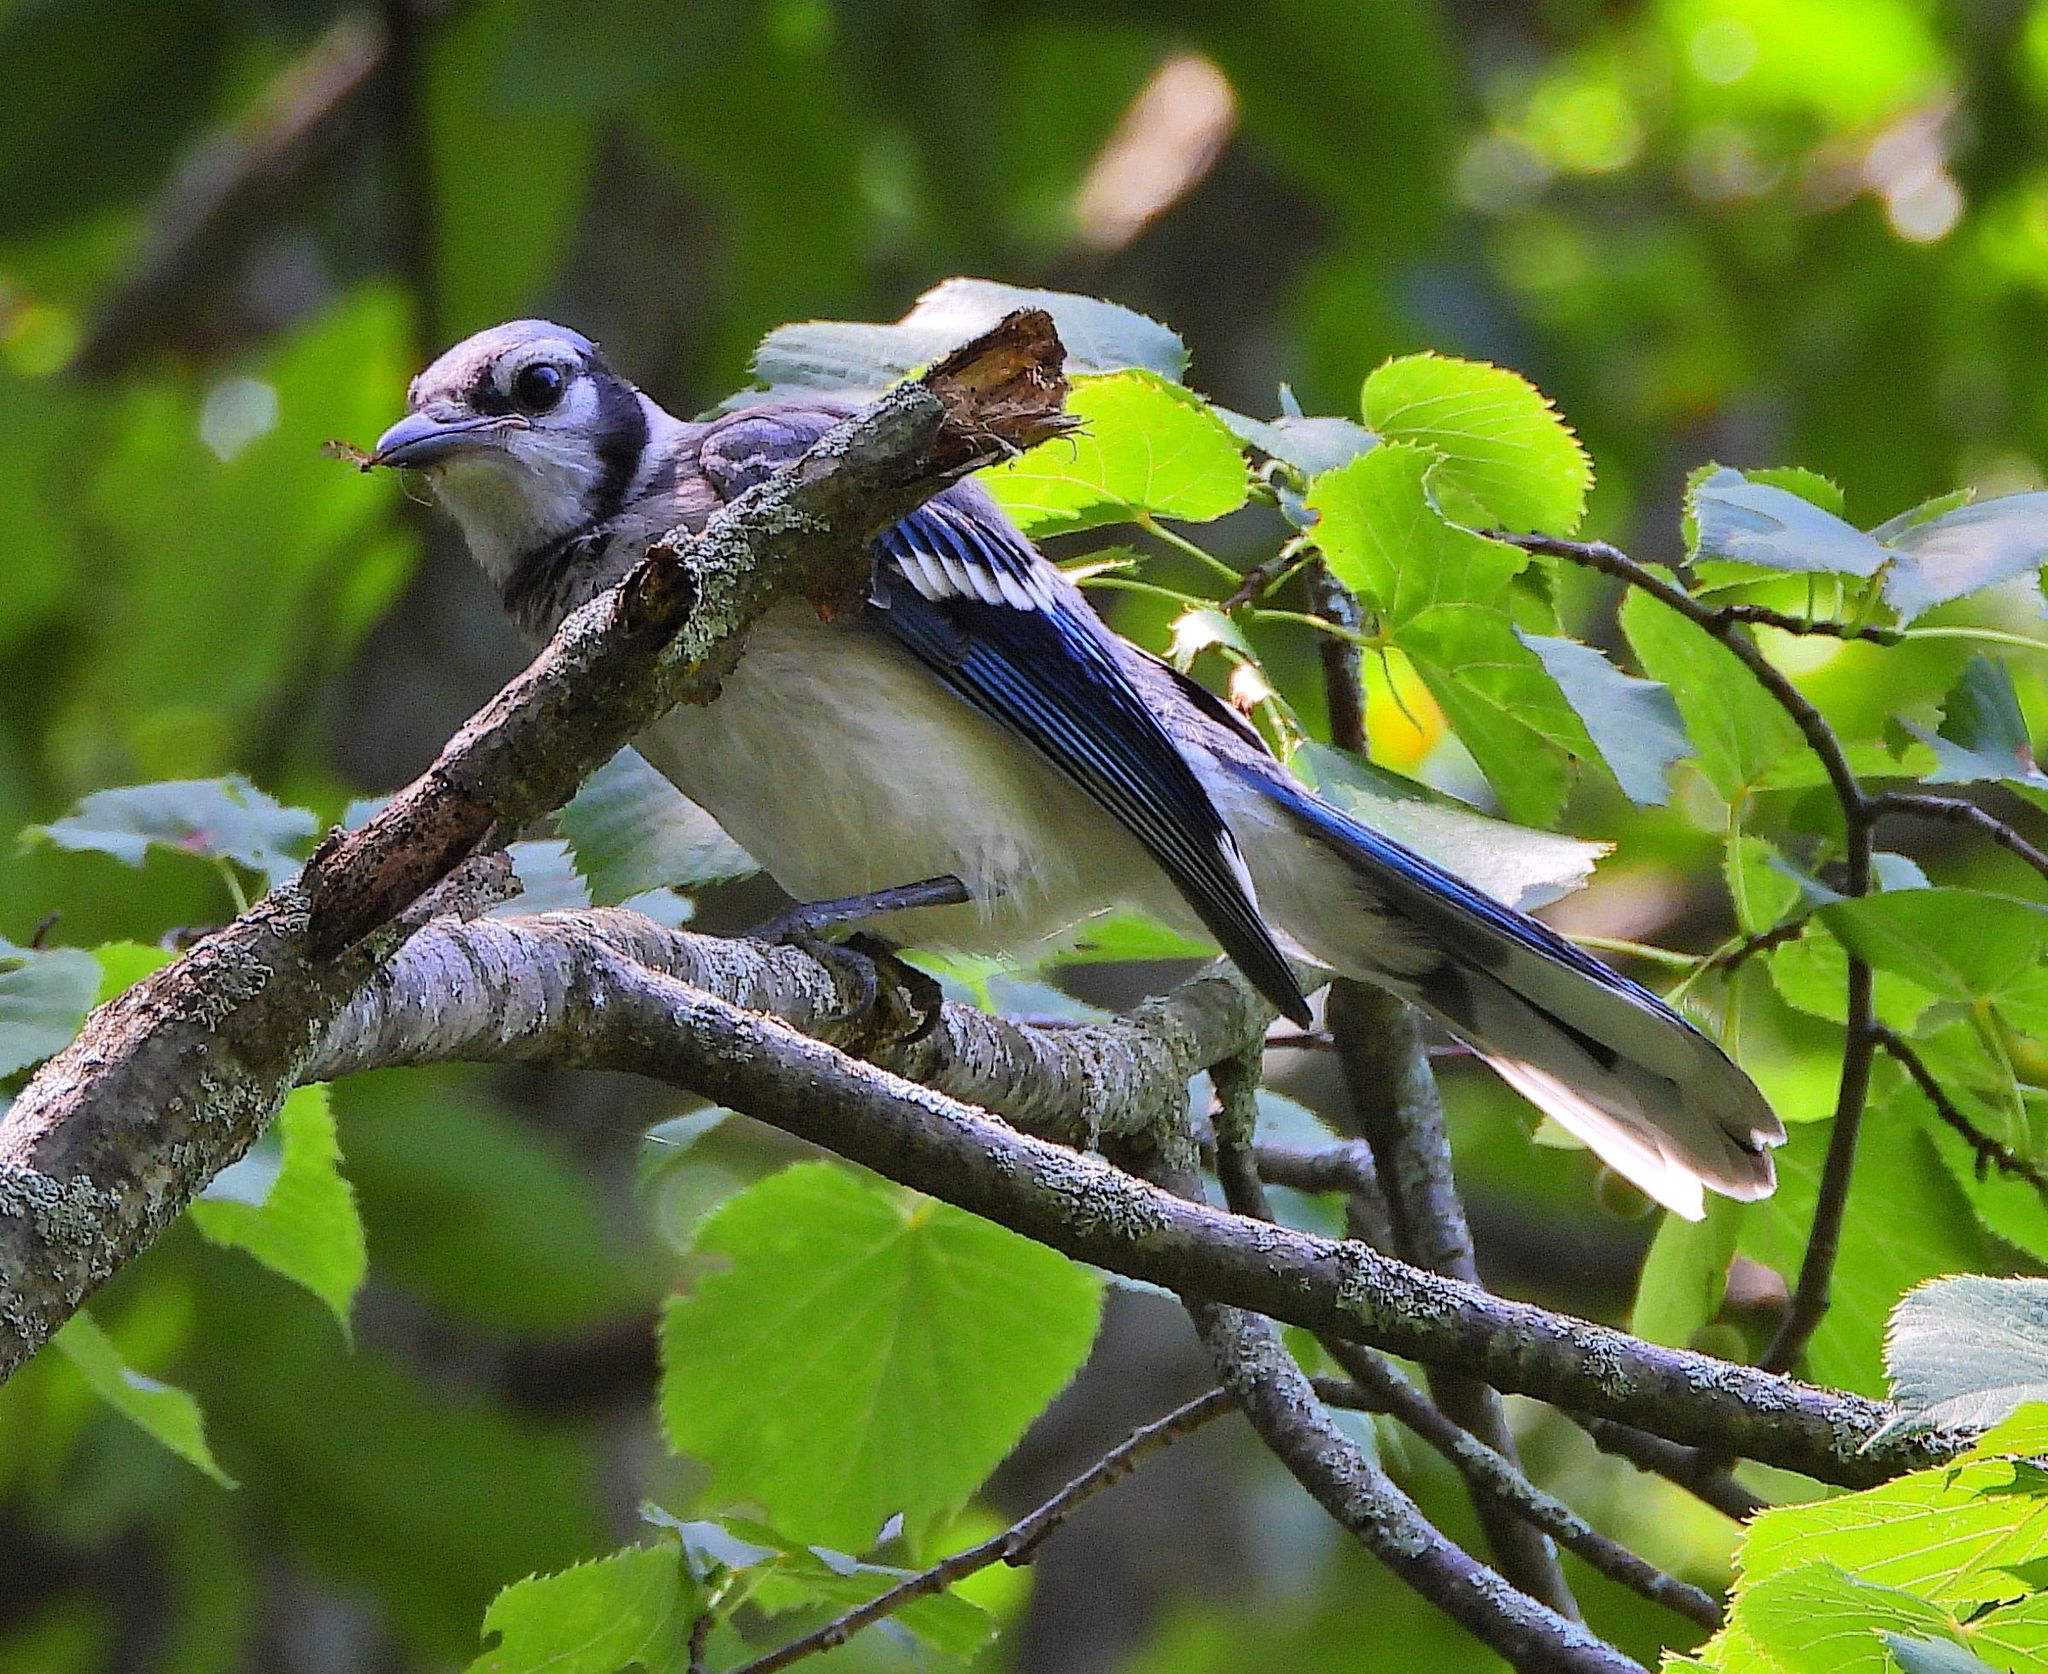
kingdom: Animalia
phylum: Chordata
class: Aves
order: Passeriformes
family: Corvidae
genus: Cyanocitta
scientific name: Cyanocitta cristata
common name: Blue jay
